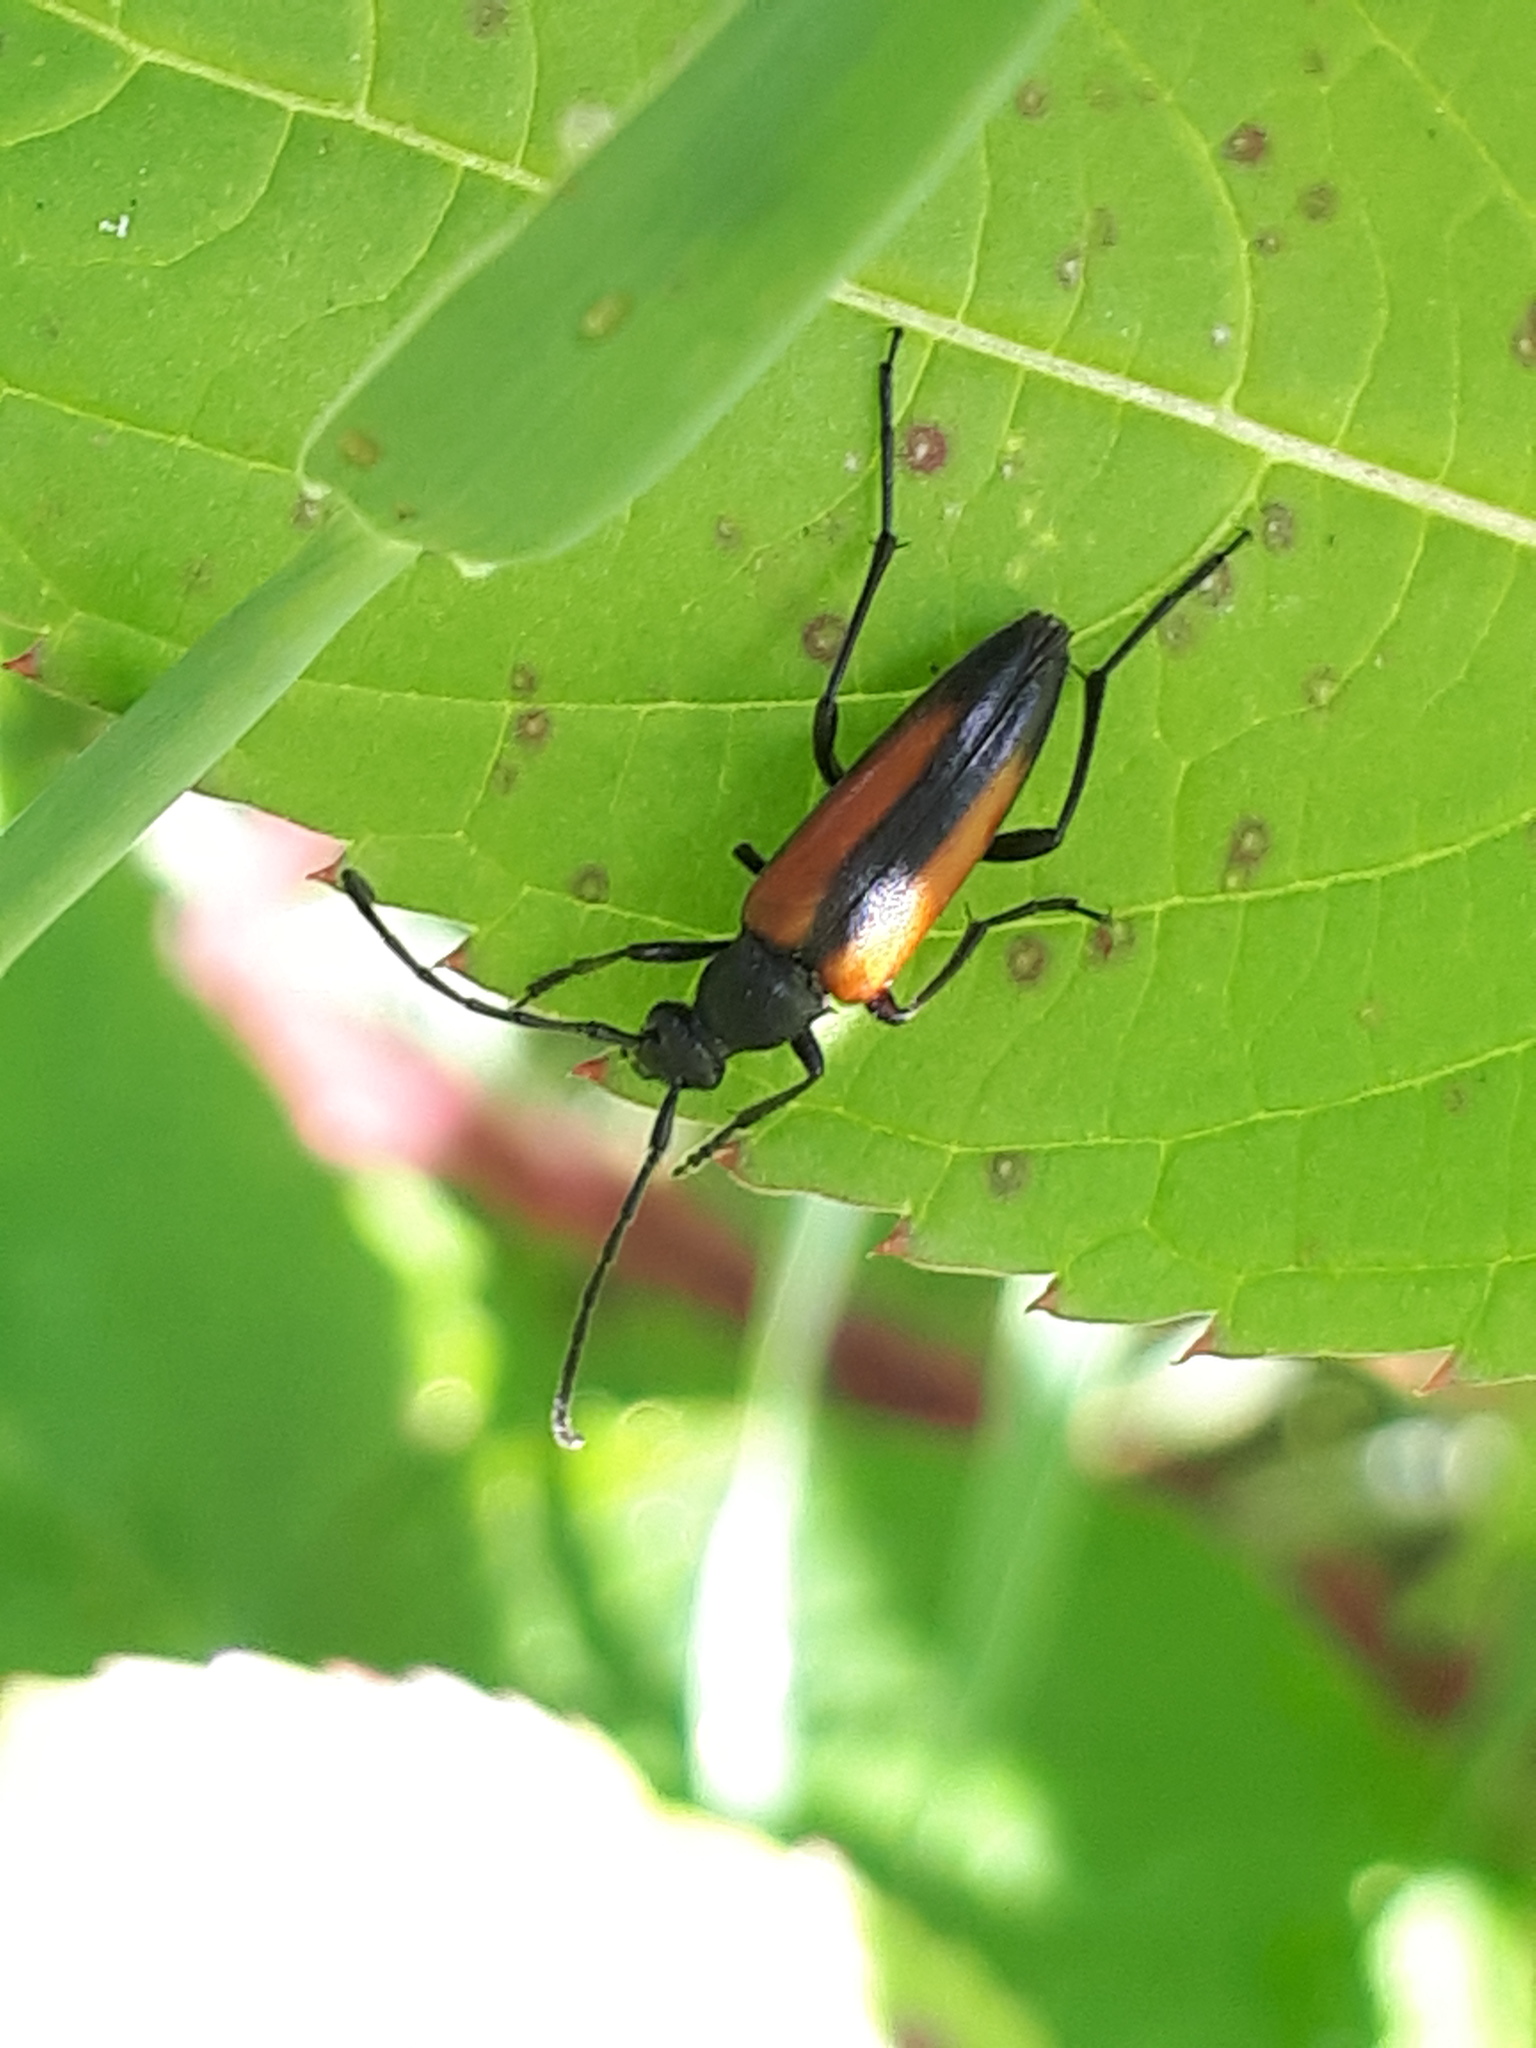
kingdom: Animalia
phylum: Arthropoda
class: Insecta
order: Coleoptera
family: Cerambycidae
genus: Stenurella
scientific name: Stenurella melanura
